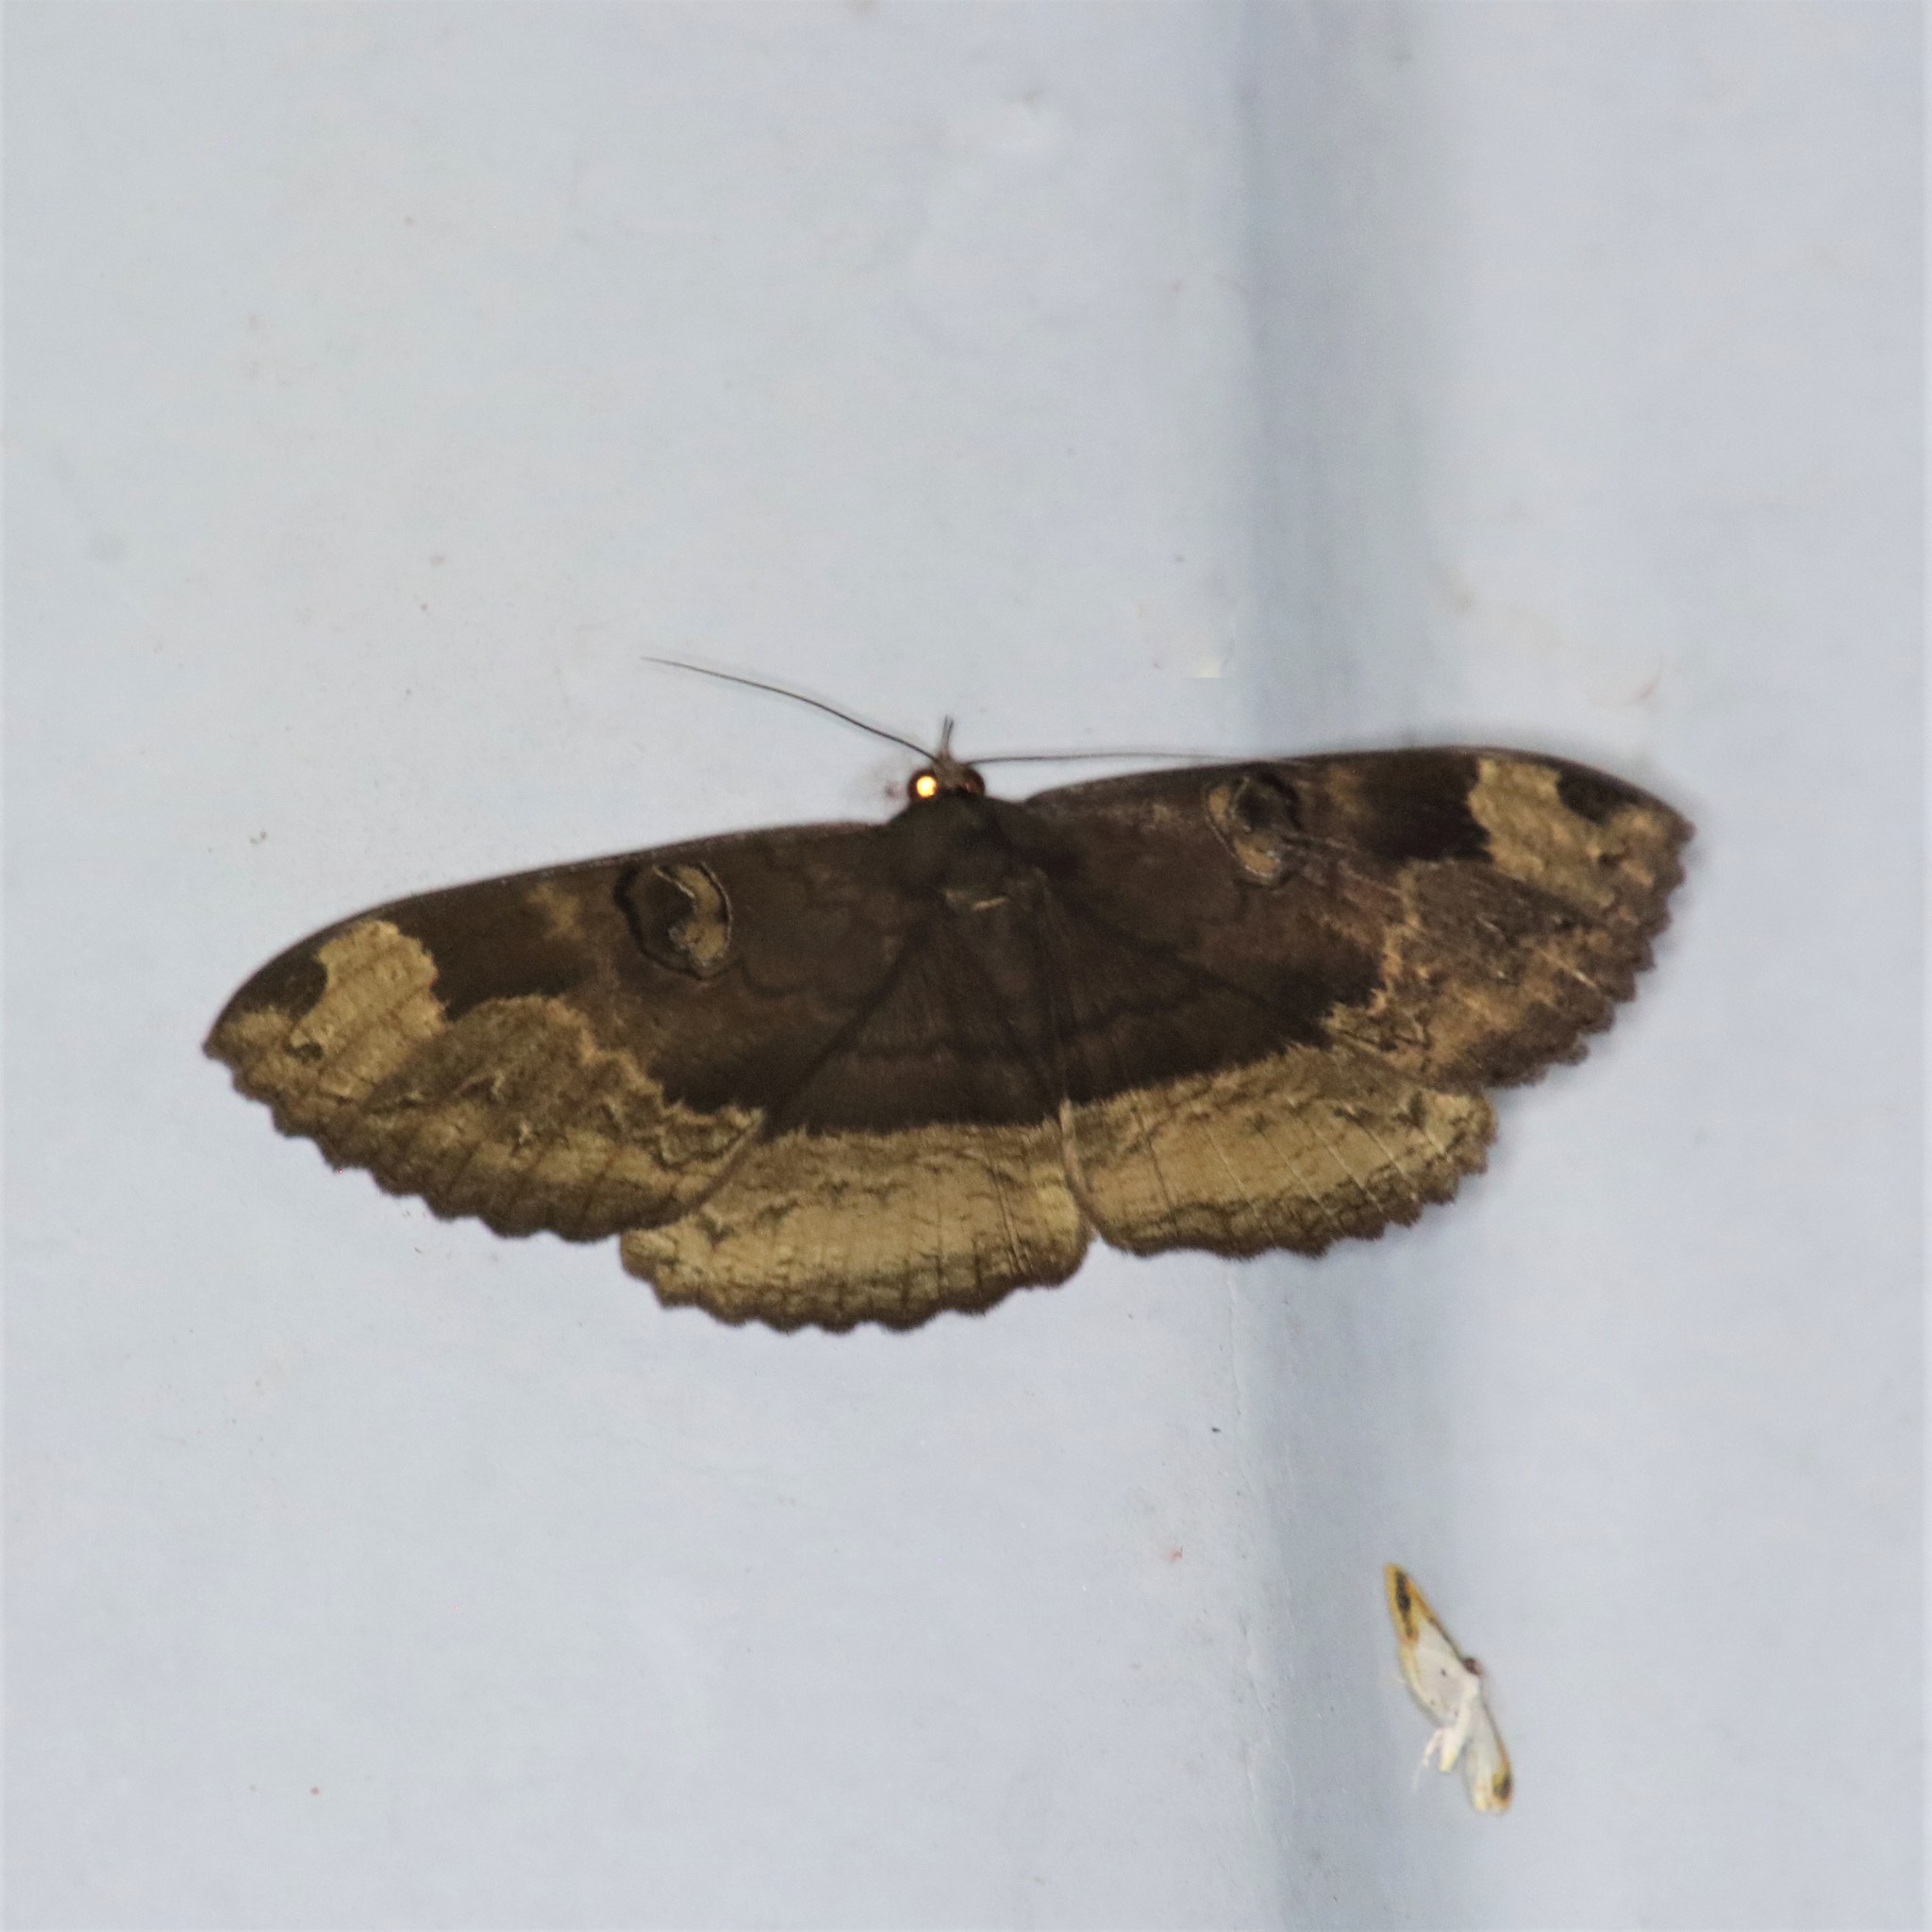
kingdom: Animalia
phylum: Arthropoda
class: Insecta
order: Lepidoptera
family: Erebidae
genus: Erebus
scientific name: Erebus caprimulgus
